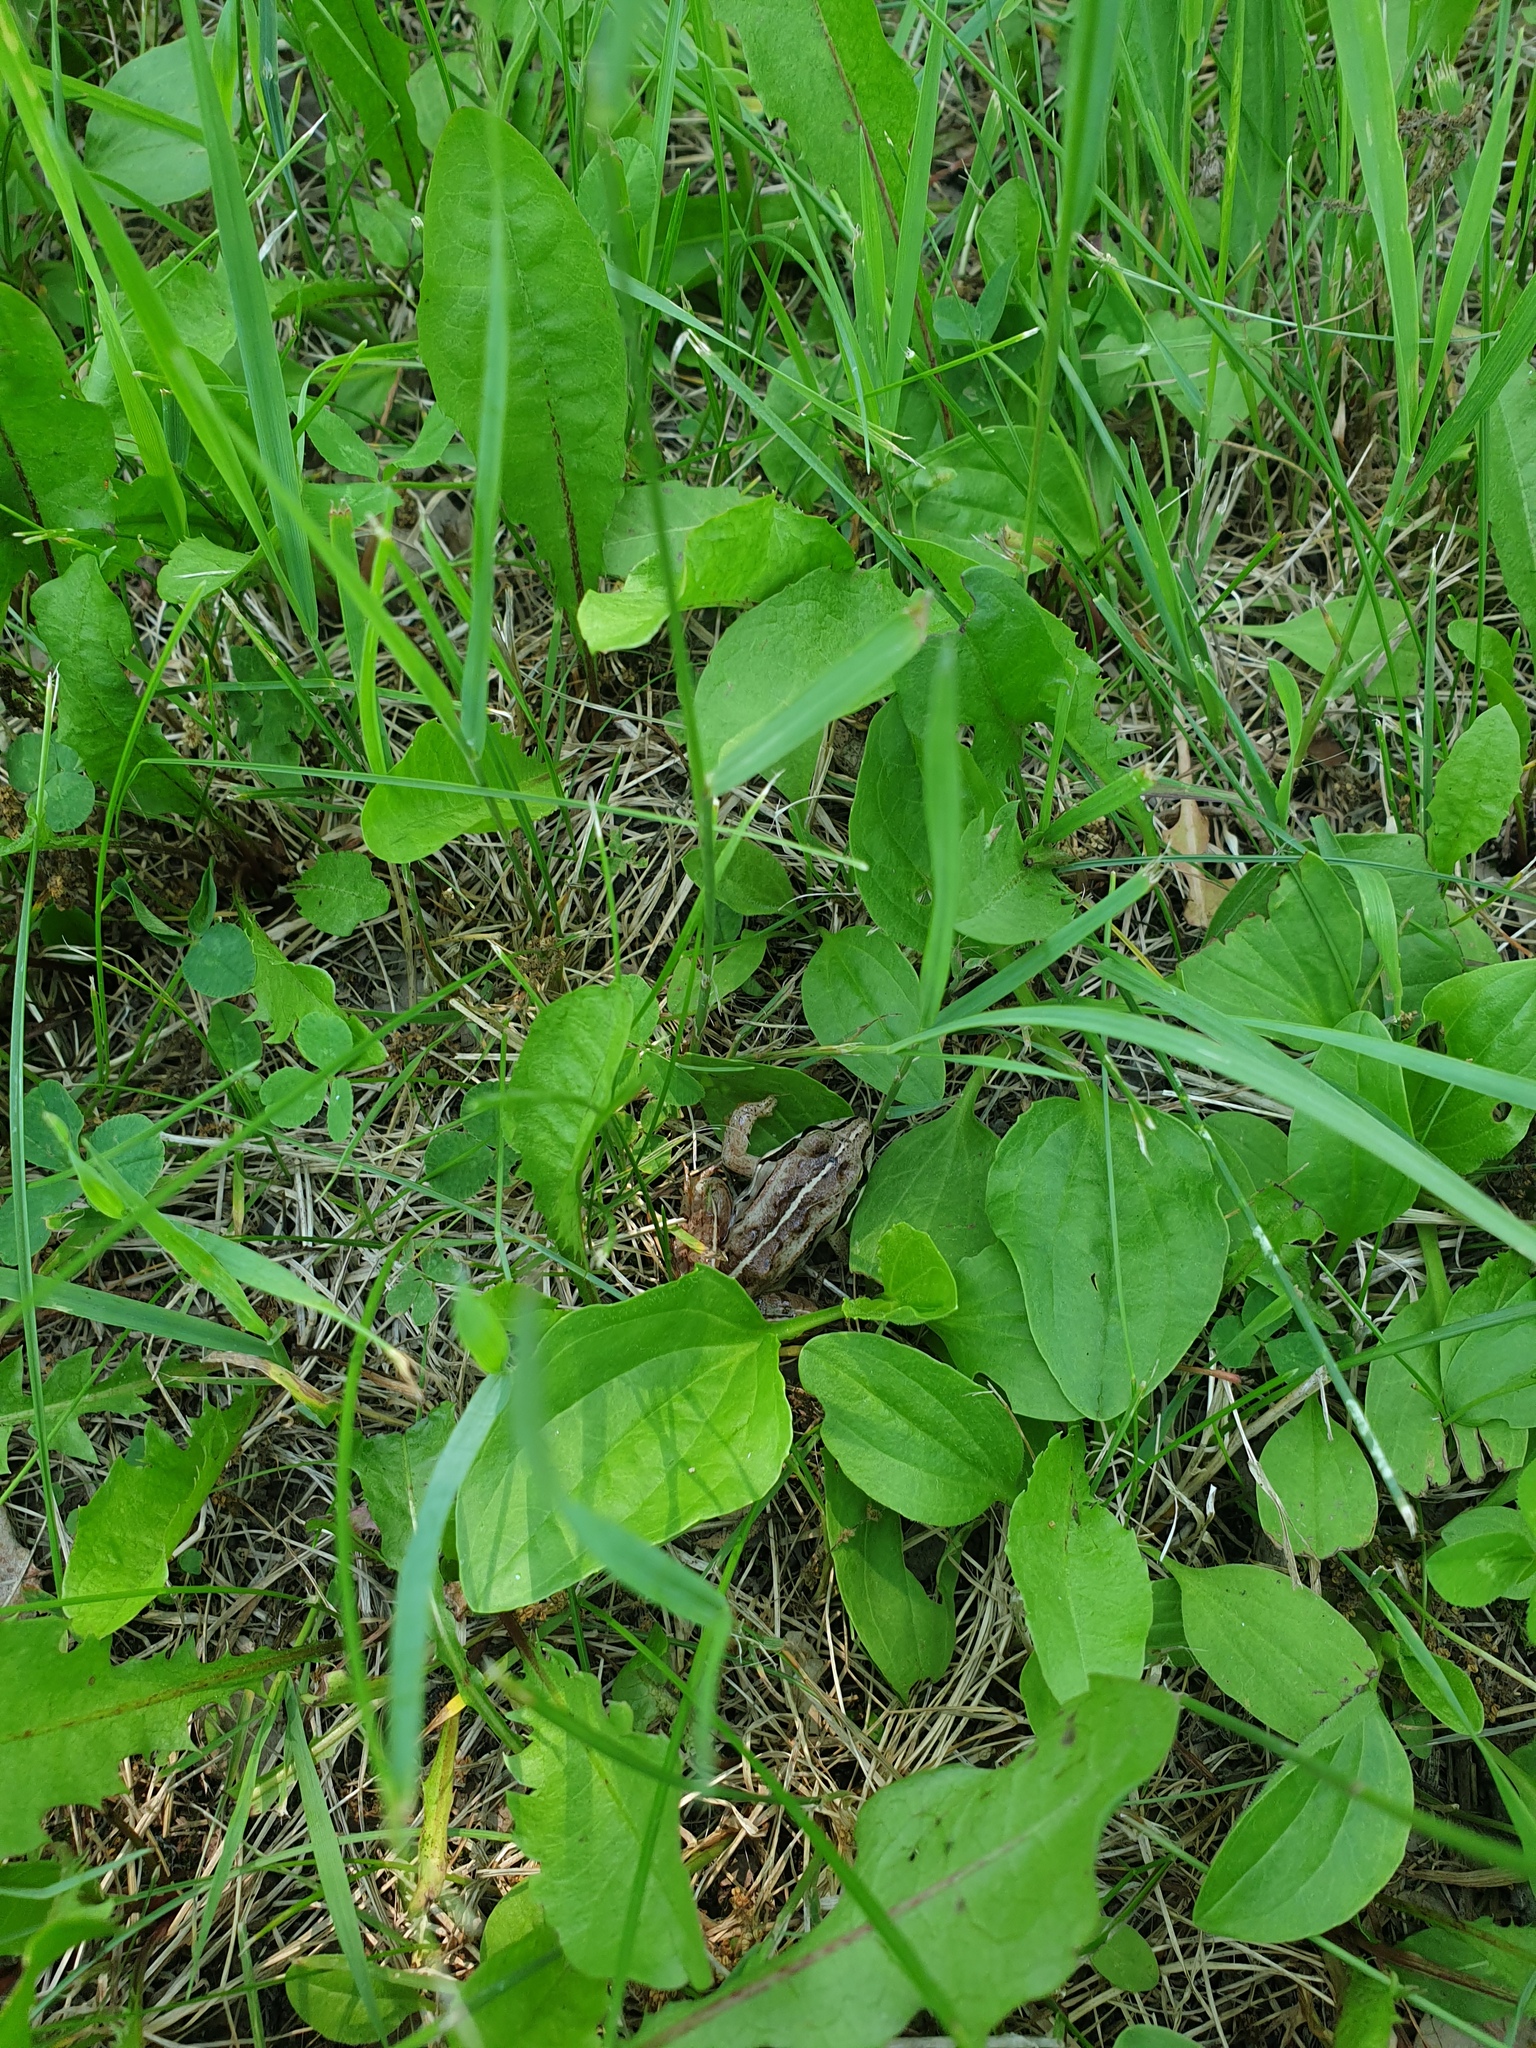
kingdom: Animalia
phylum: Chordata
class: Amphibia
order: Anura
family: Ranidae
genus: Lithobates
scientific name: Lithobates sylvaticus
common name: Wood frog
